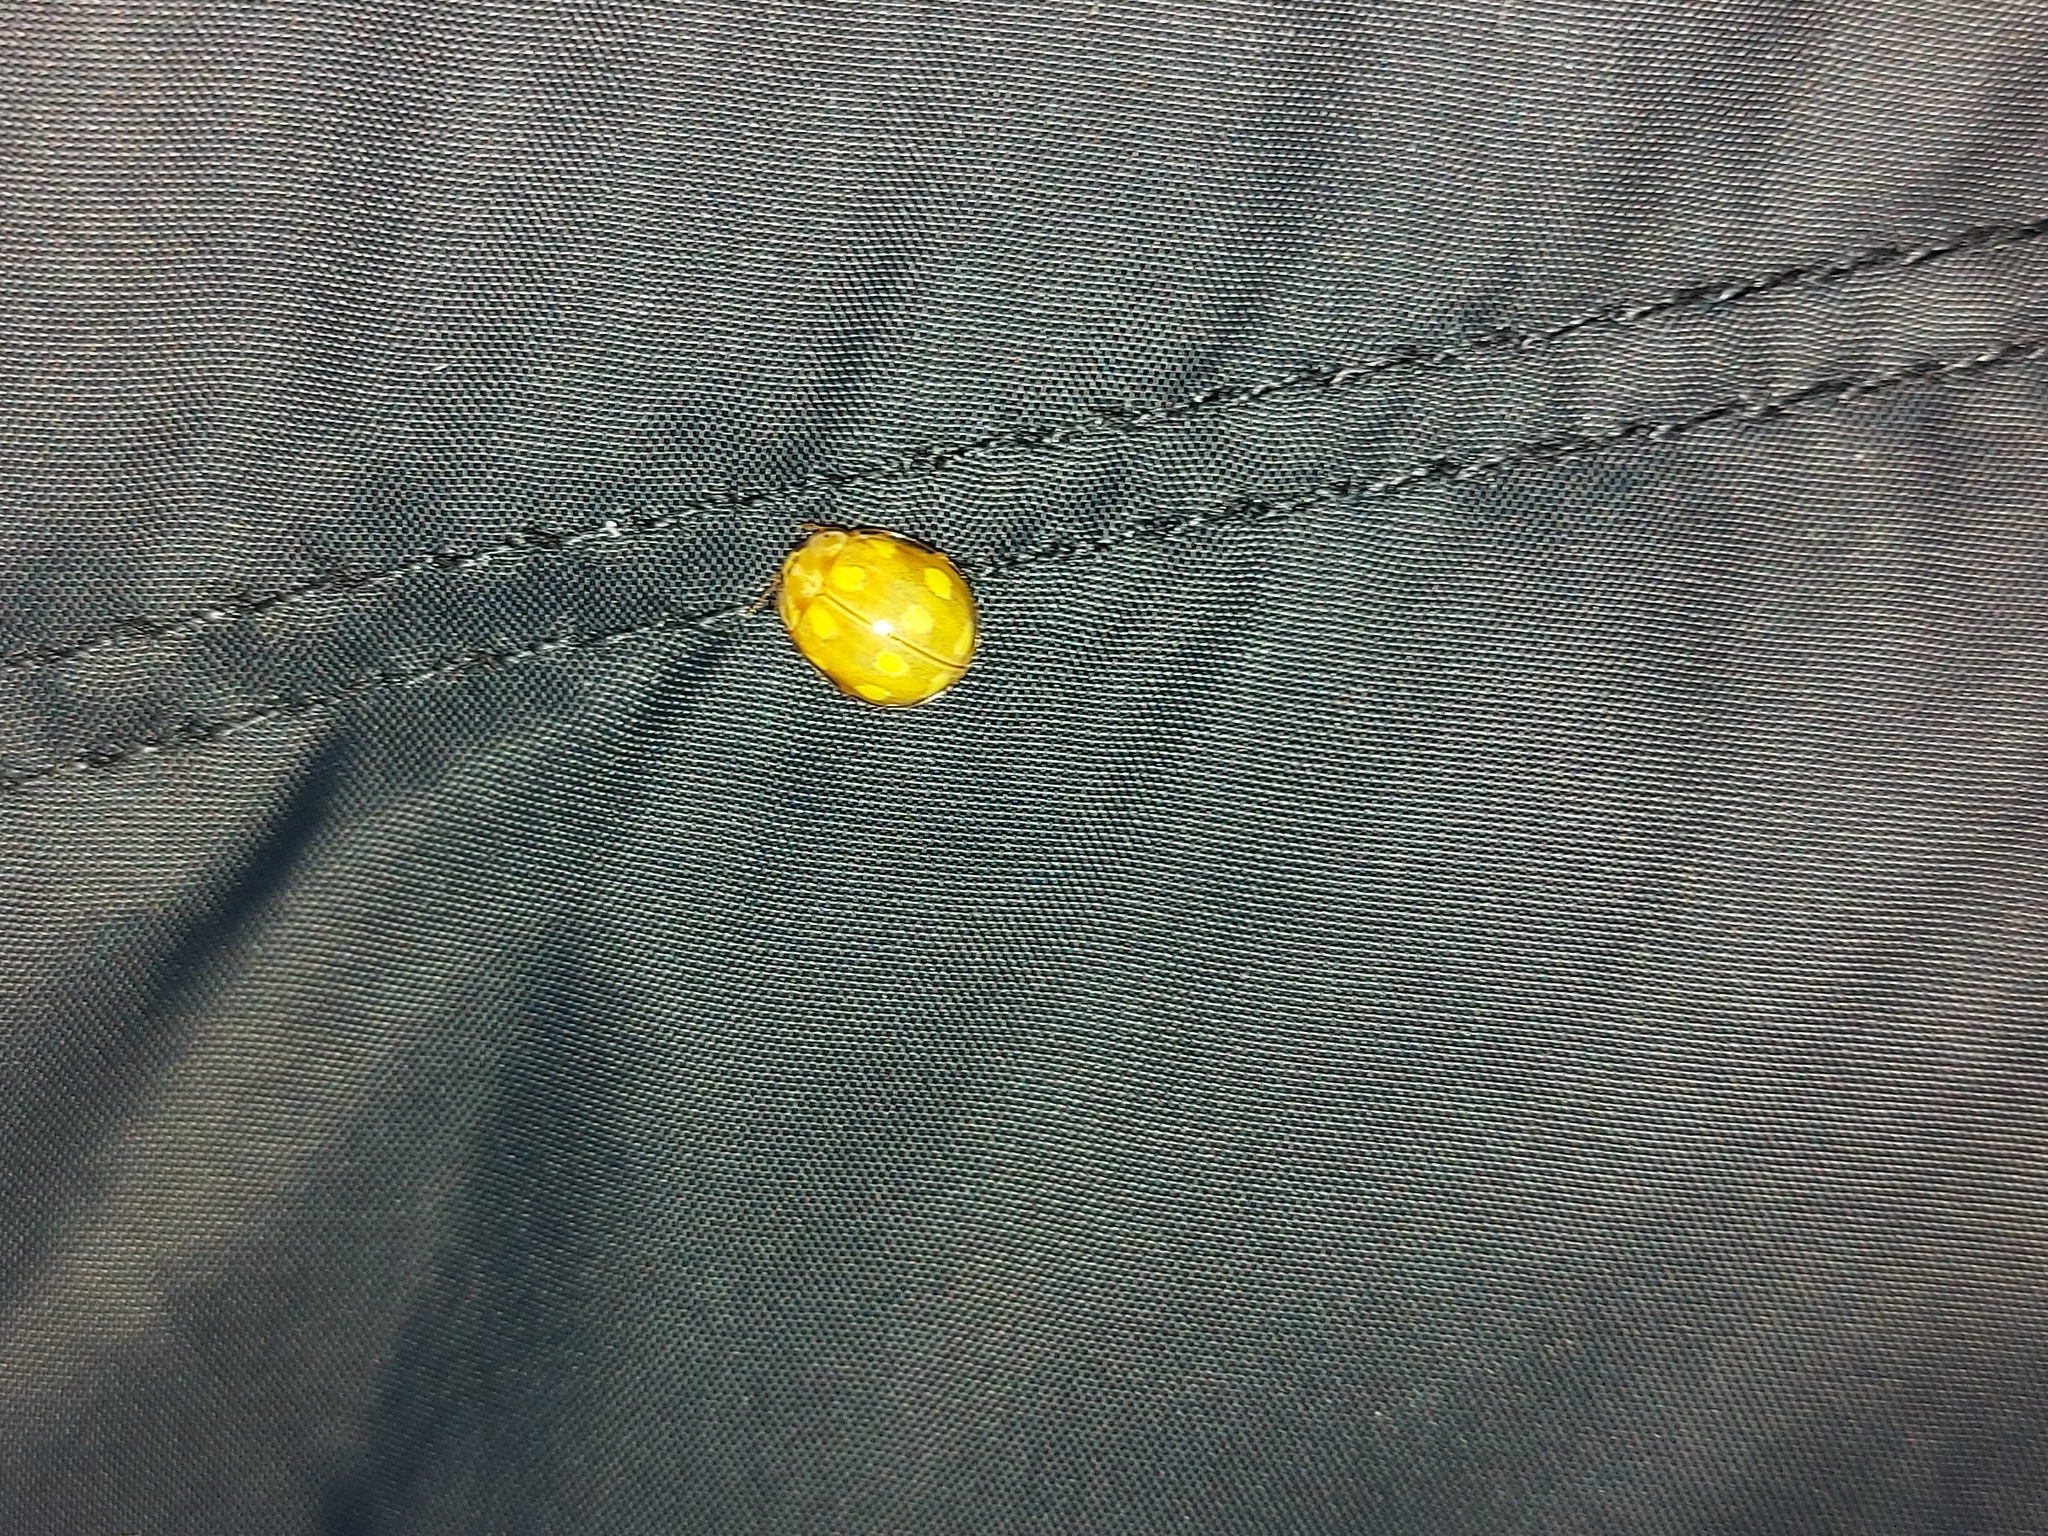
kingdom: Animalia
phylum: Arthropoda
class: Insecta
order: Coleoptera
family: Coccinellidae
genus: Calvia
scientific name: Calvia decemguttata
